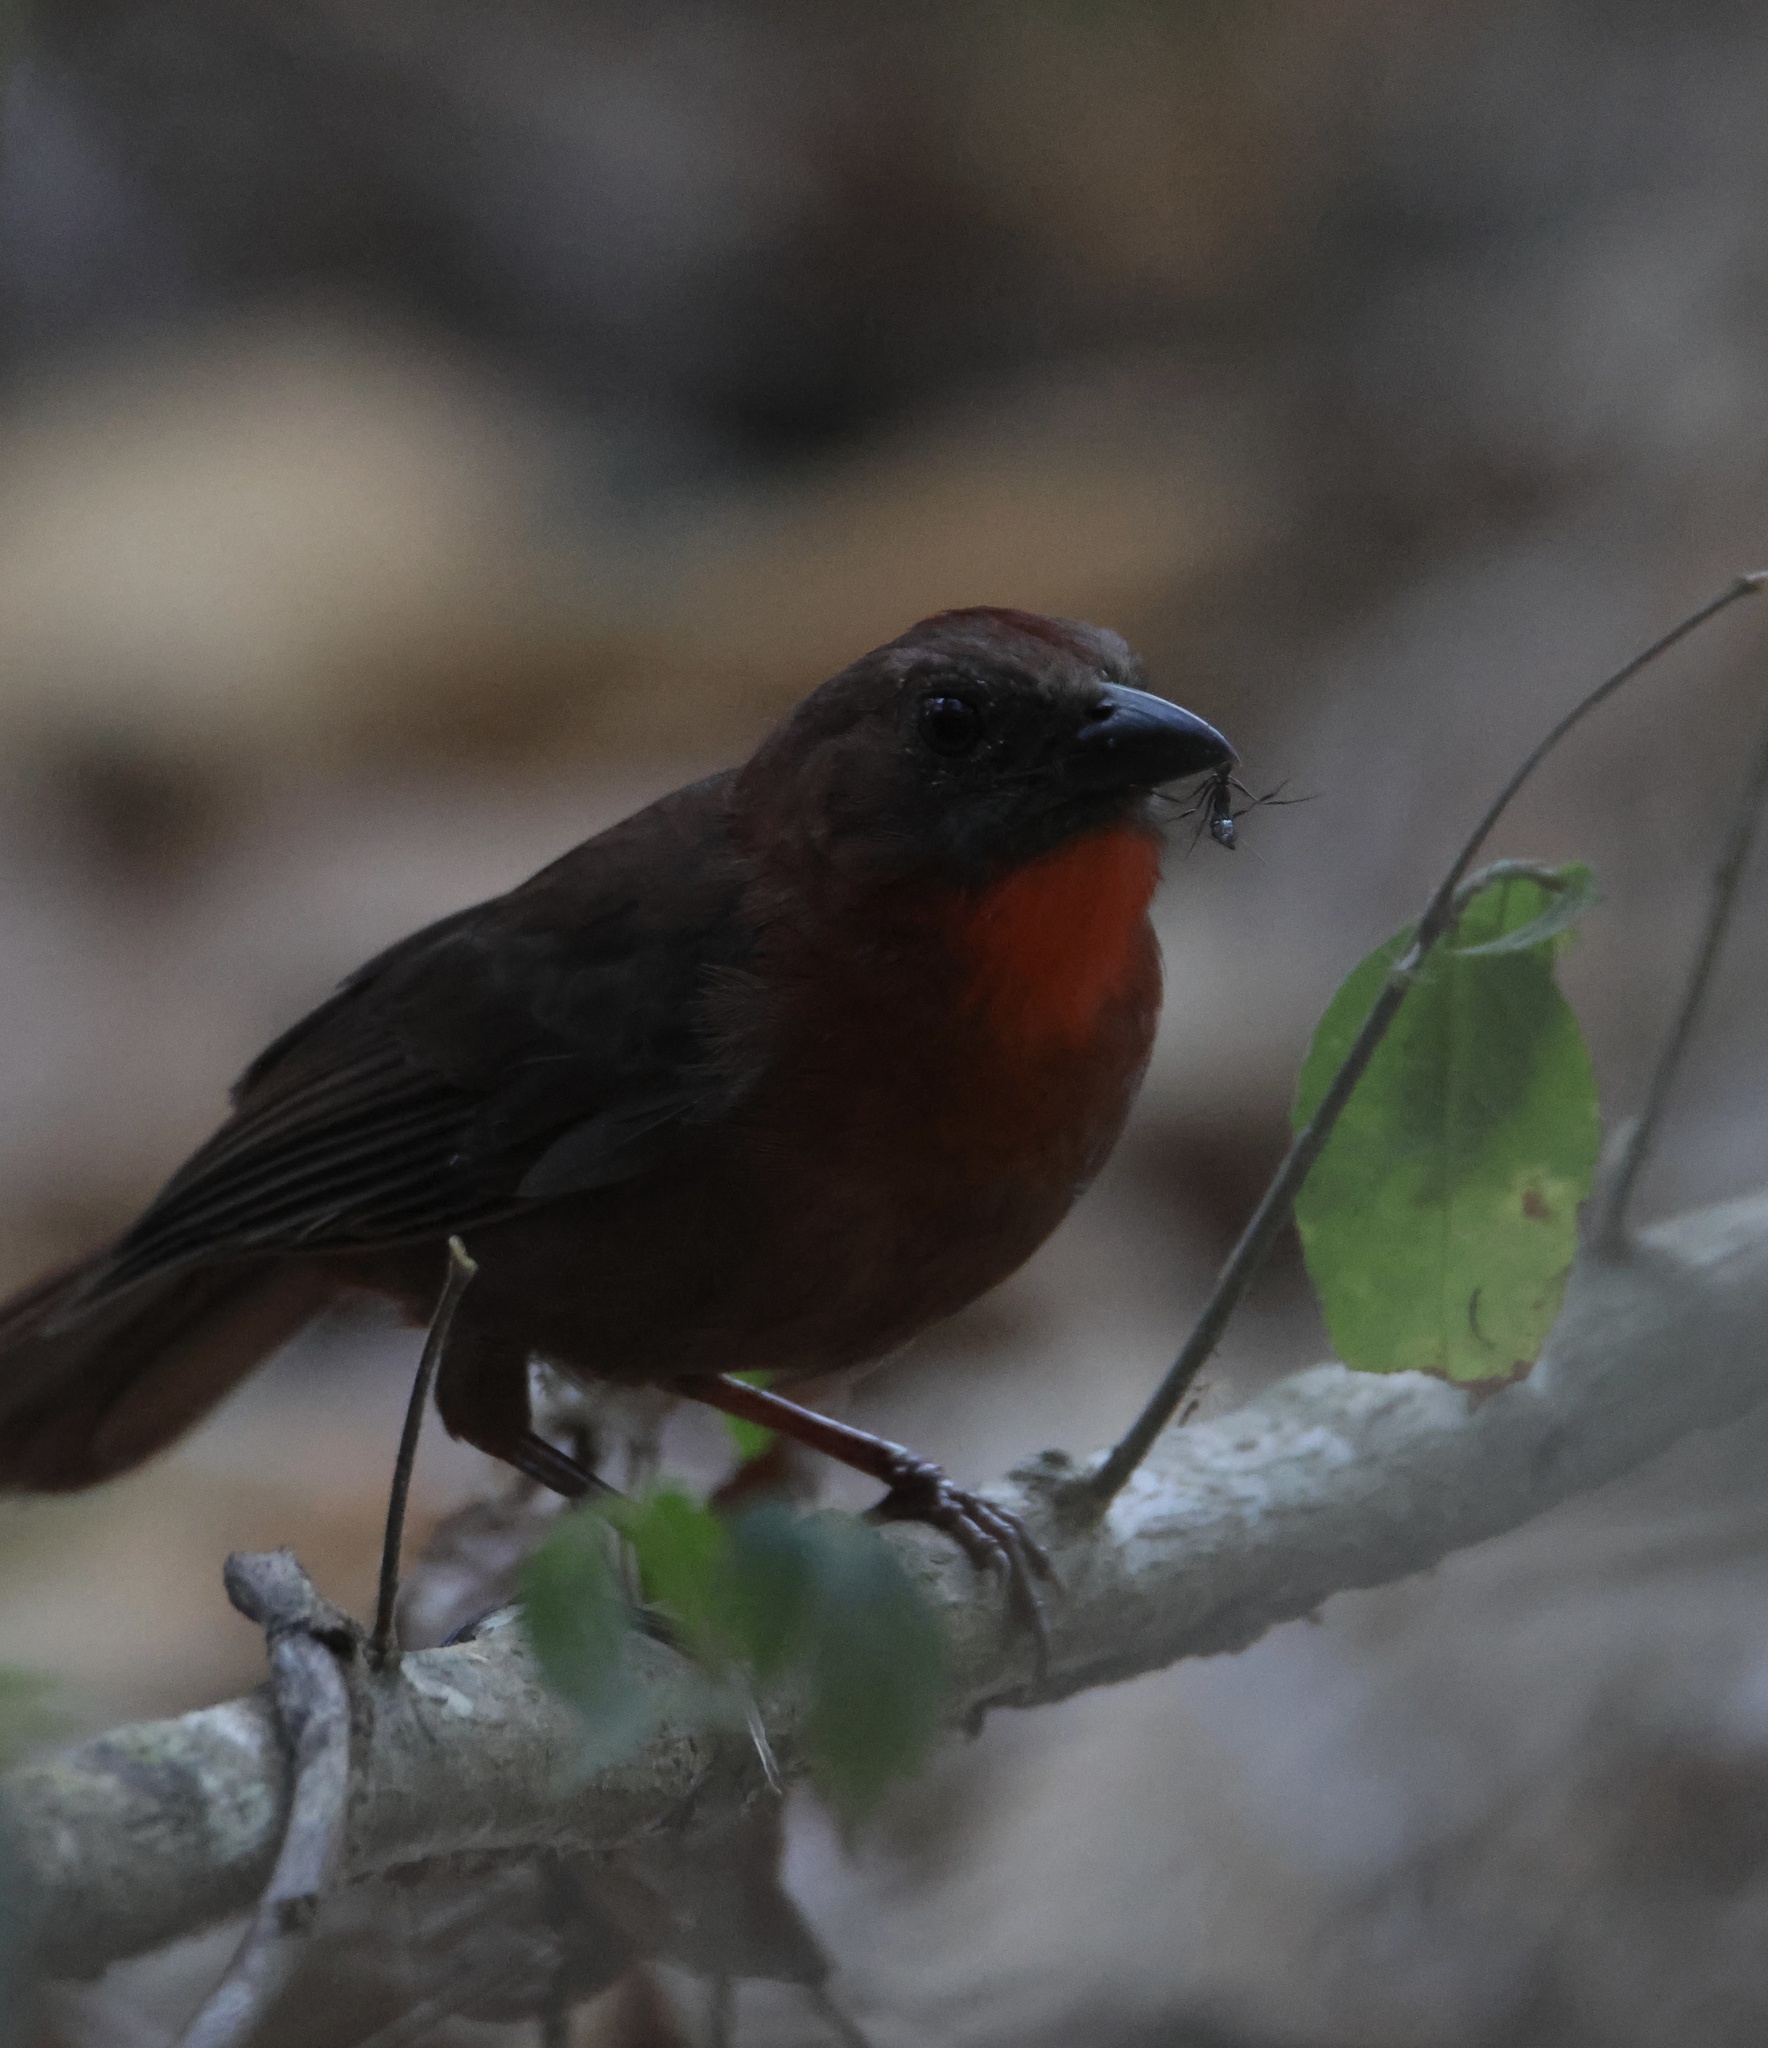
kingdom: Animalia
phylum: Chordata
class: Aves
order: Passeriformes
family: Cardinalidae
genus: Habia
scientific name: Habia fuscicauda
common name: Red-throated ant-tanager
